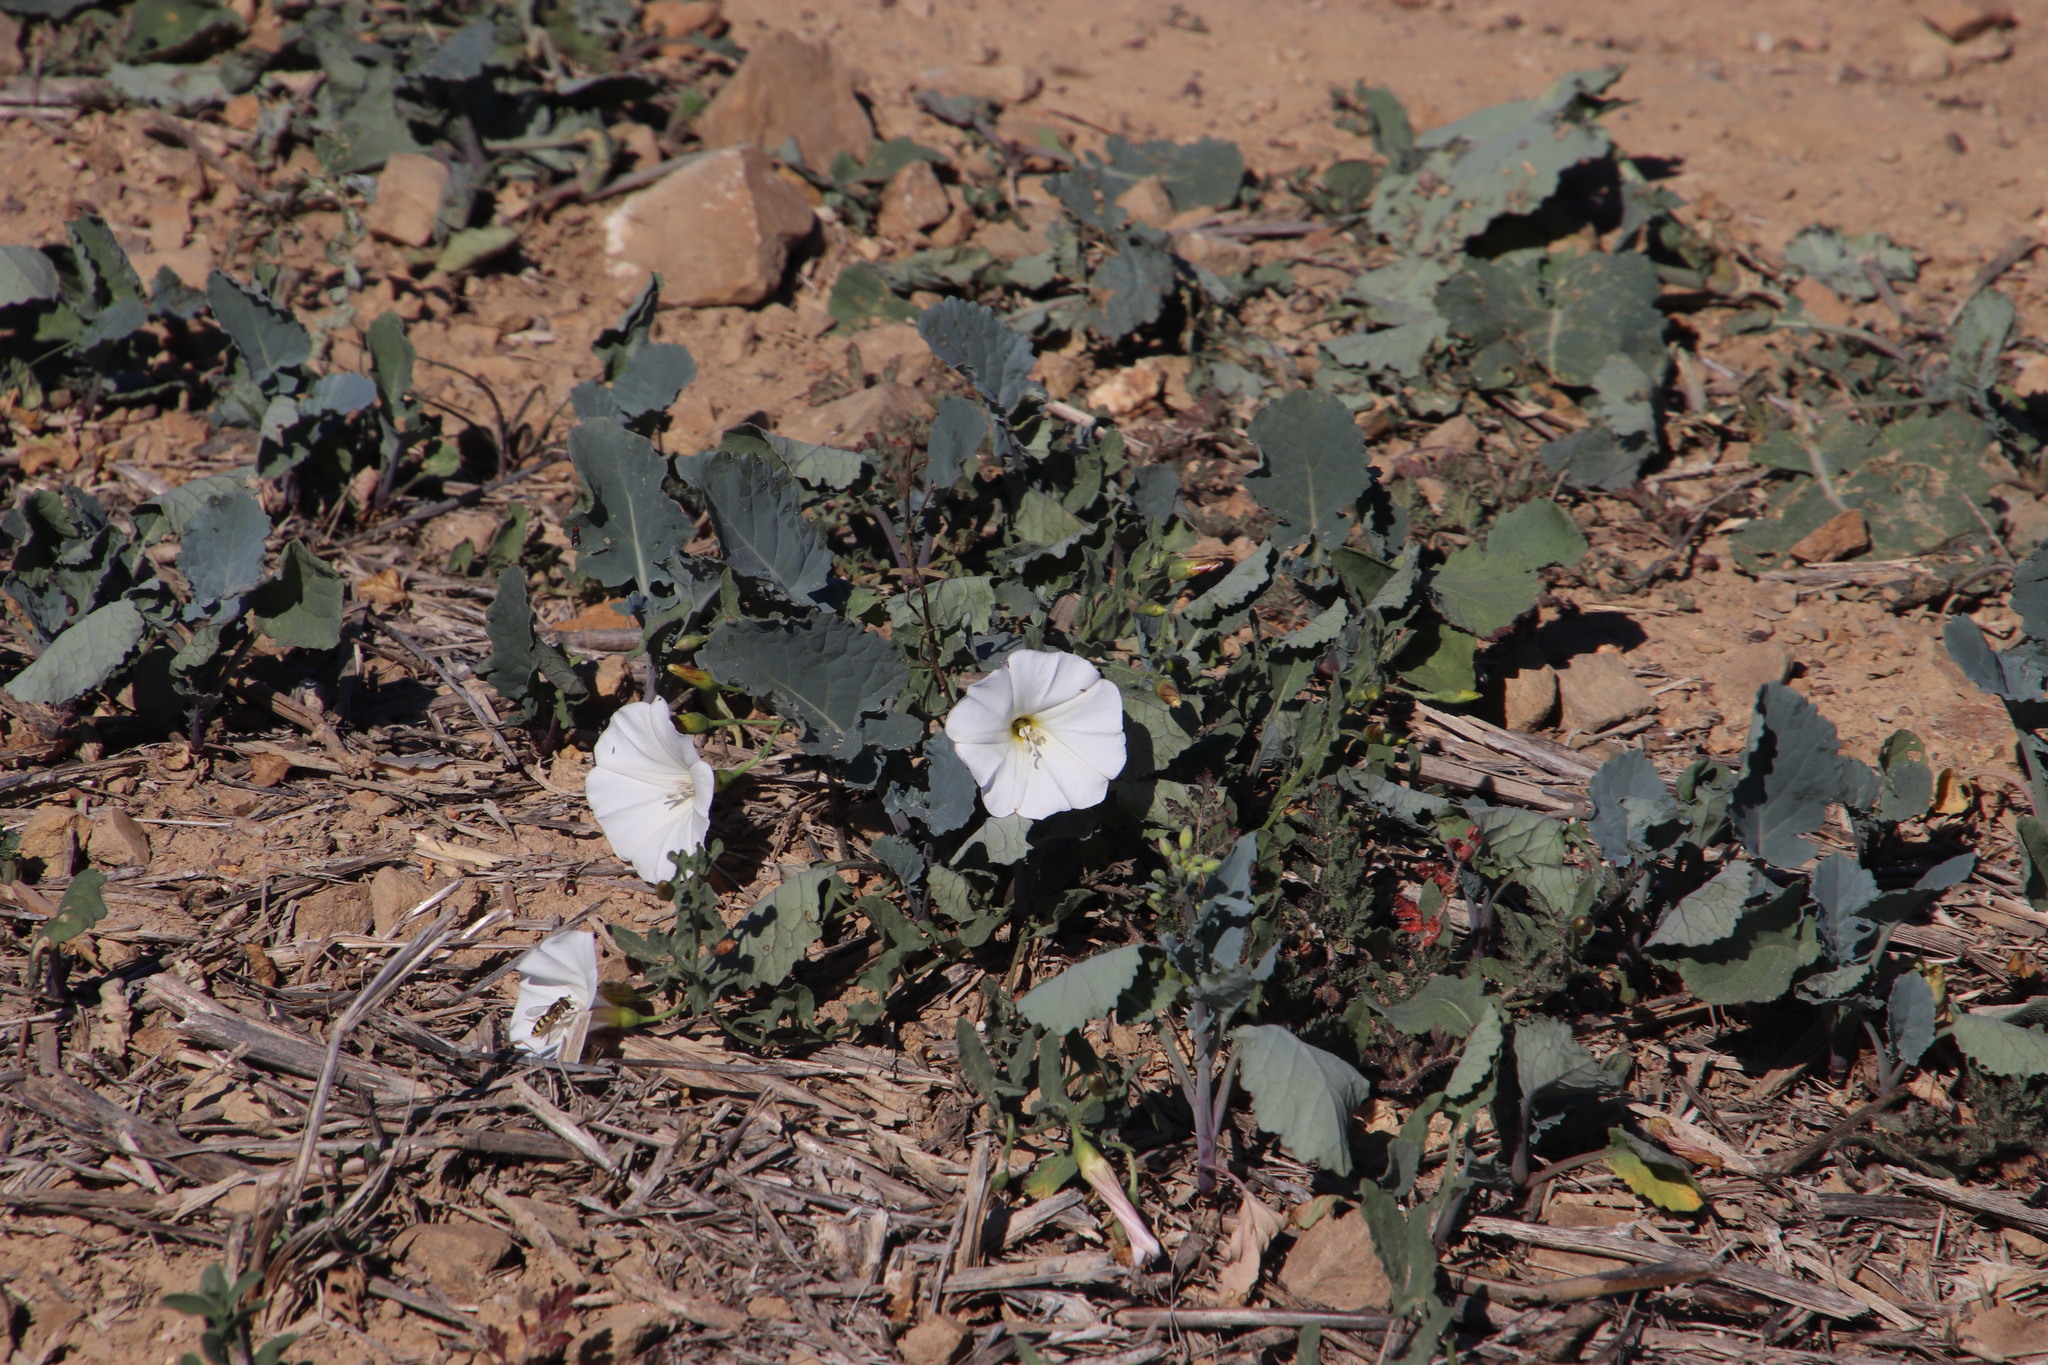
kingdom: Animalia
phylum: Arthropoda
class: Insecta
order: Diptera
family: Syrphidae
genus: Ischiodon
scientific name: Ischiodon aegyptius
